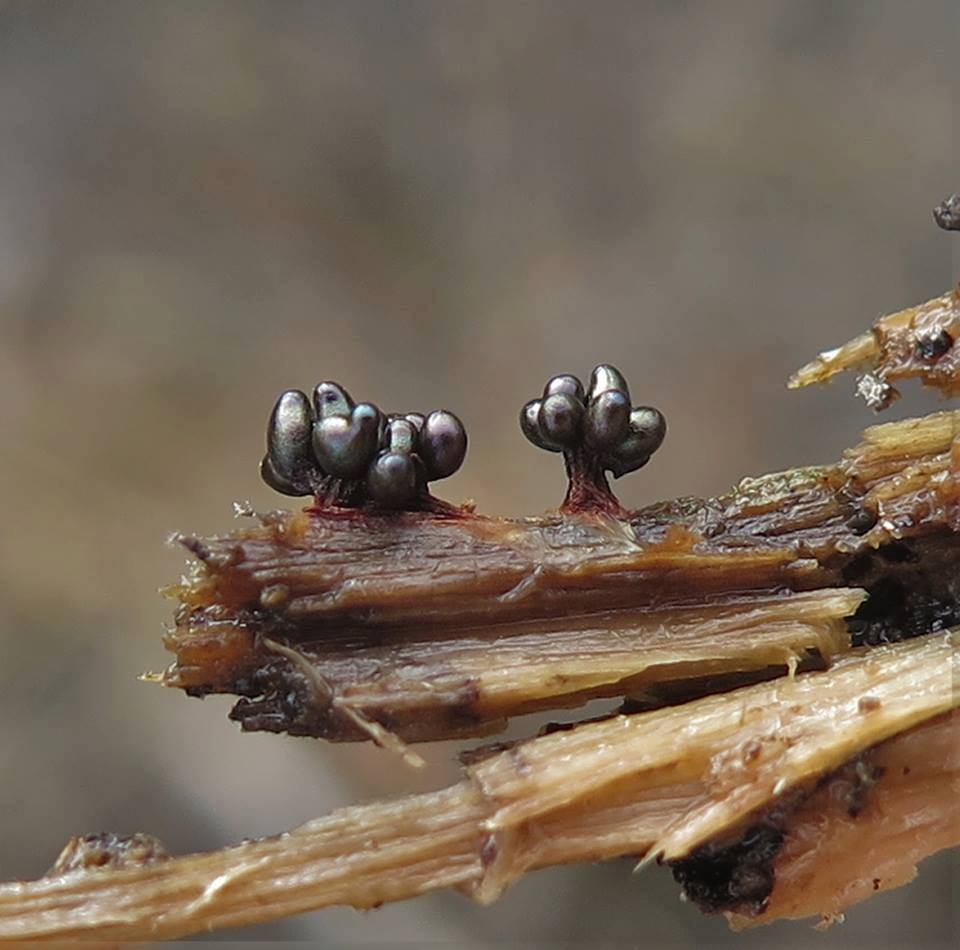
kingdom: Protozoa
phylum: Mycetozoa
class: Myxomycetes
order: Trichiales
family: Trichiaceae
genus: Metatrichia
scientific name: Metatrichia vesparia
